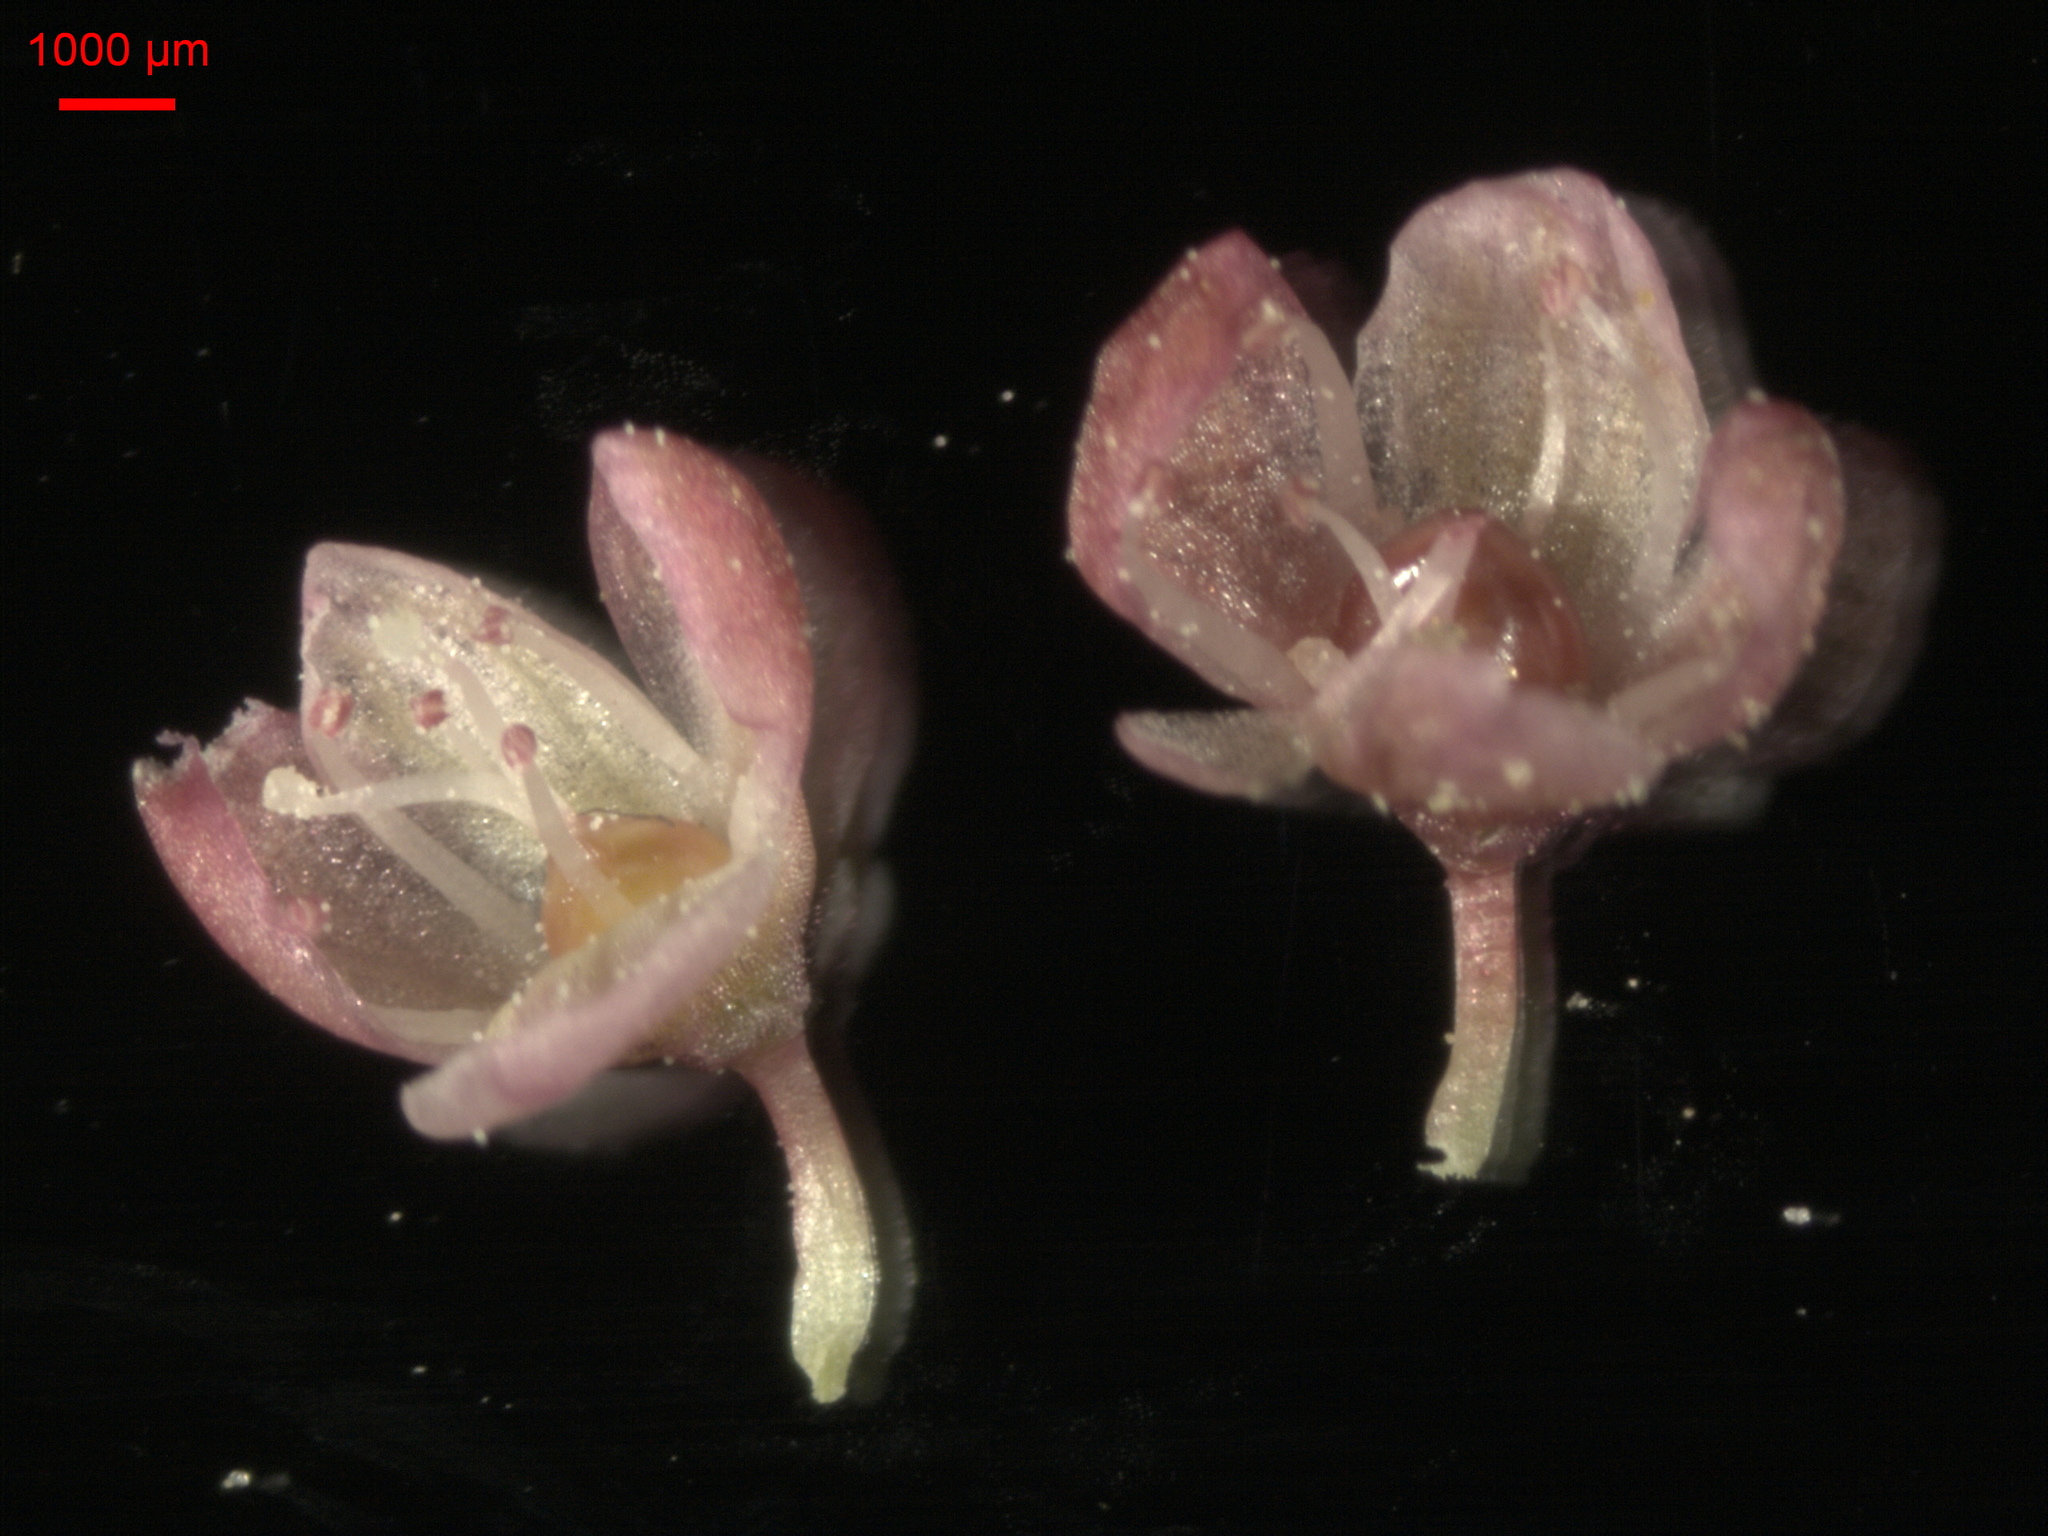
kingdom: Plantae
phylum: Tracheophyta
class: Magnoliopsida
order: Caryophyllales
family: Polygonaceae
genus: Persicaria
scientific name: Persicaria lapathifolia
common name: Curlytop knotweed
